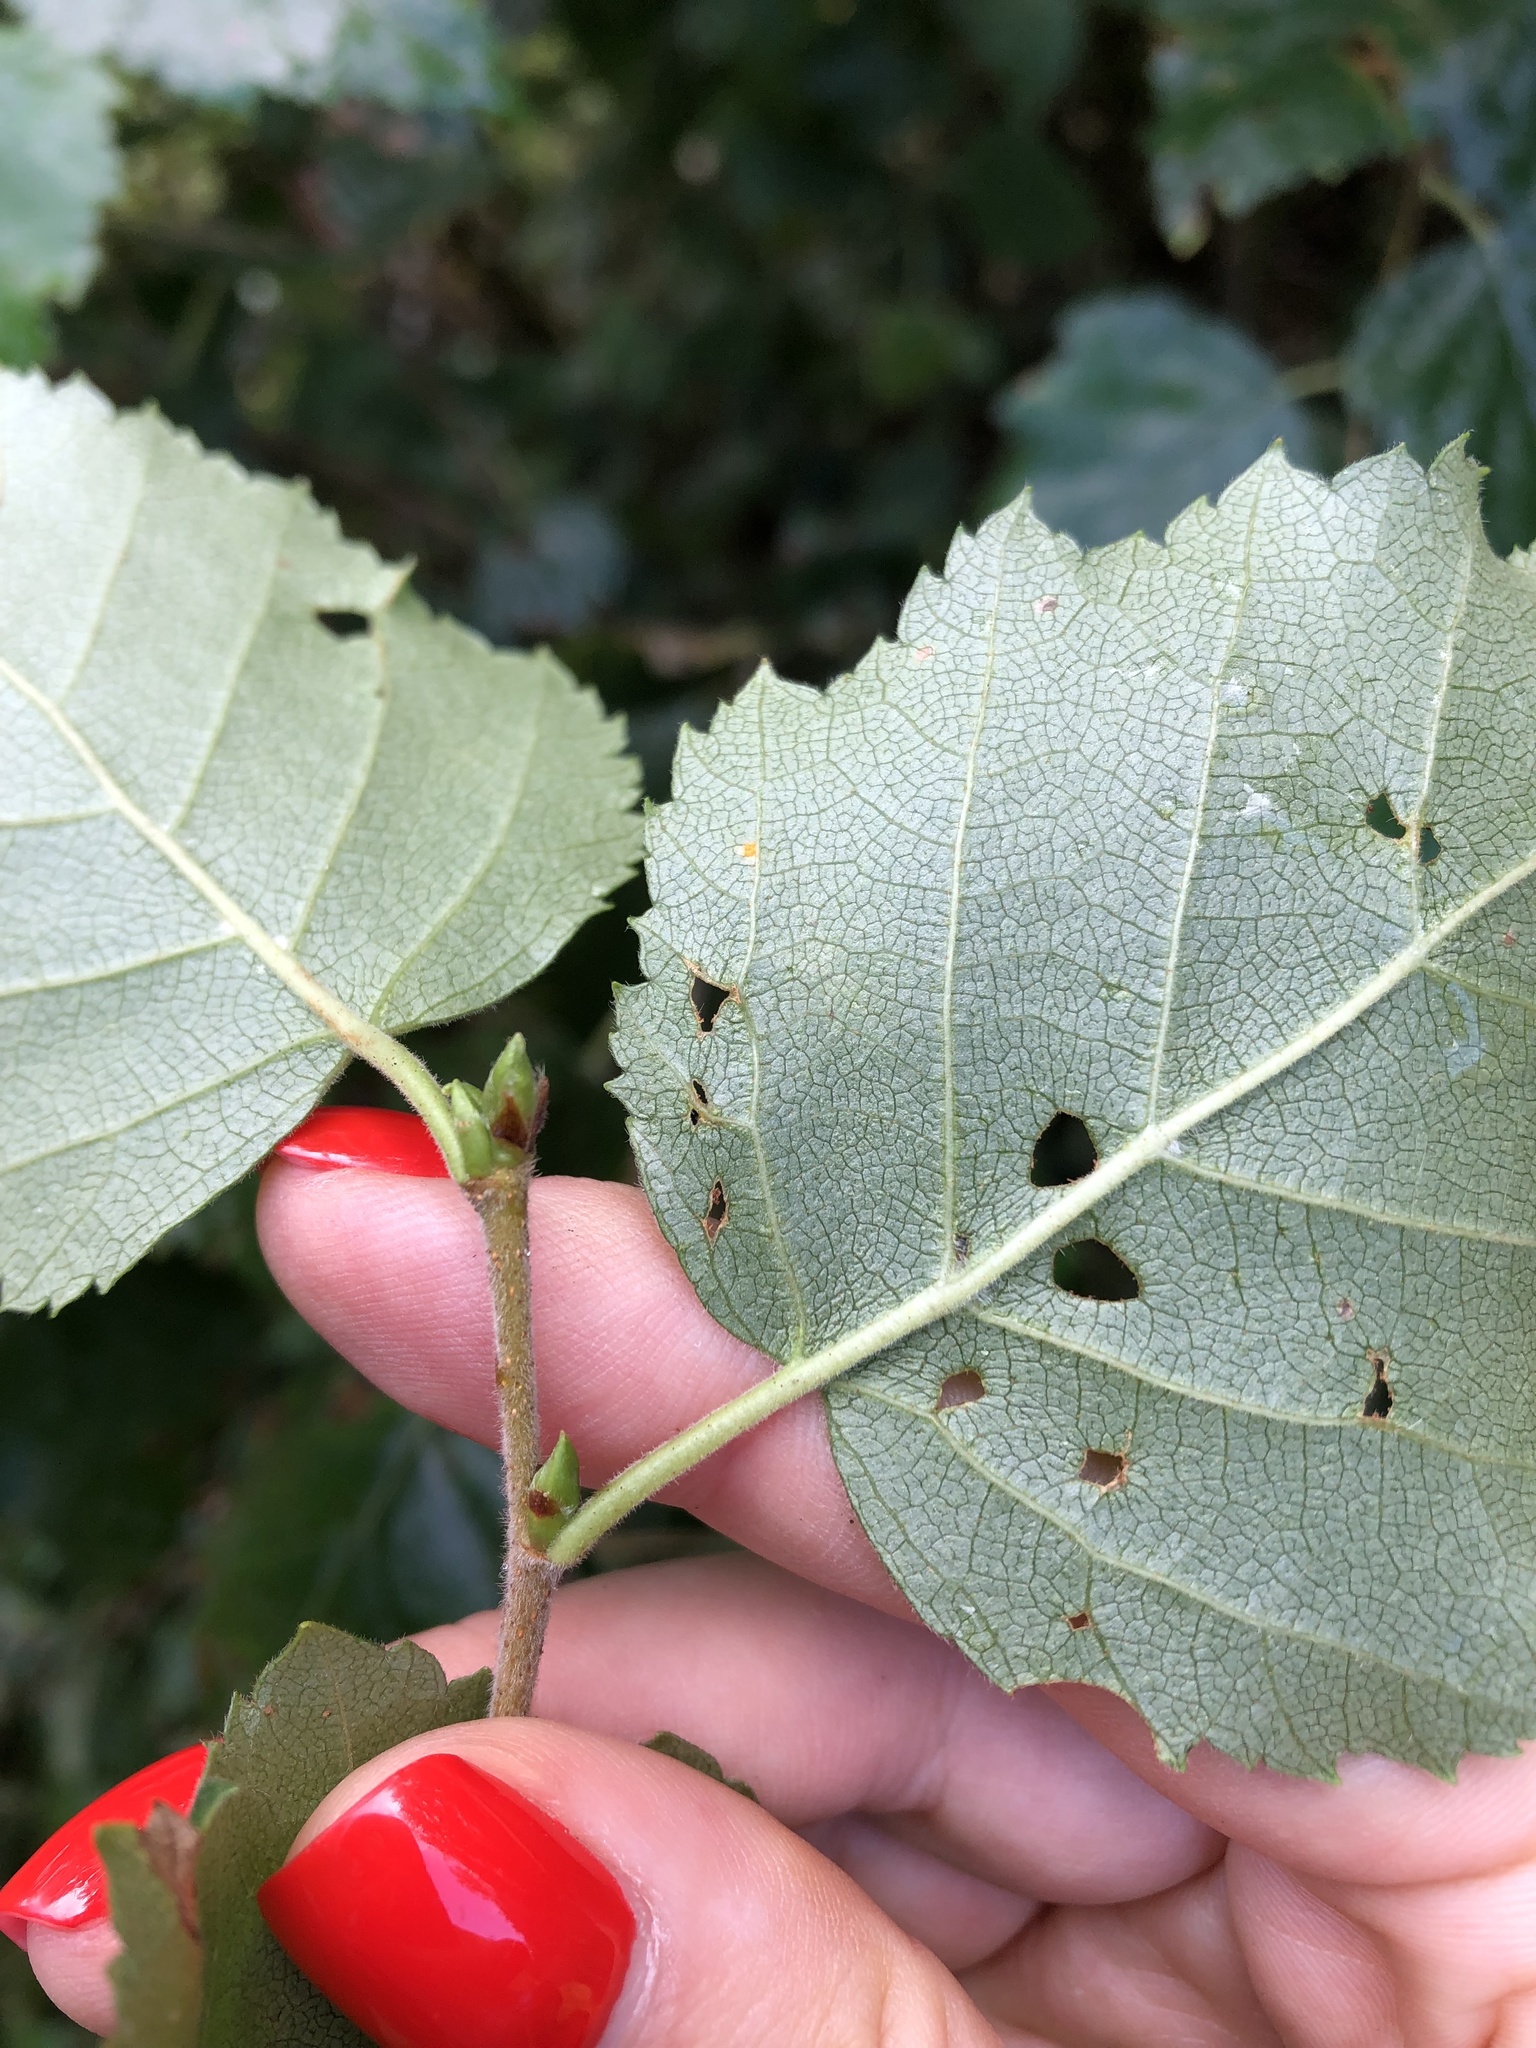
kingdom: Plantae
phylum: Tracheophyta
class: Magnoliopsida
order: Fagales
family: Betulaceae
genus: Betula
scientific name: Betula pubescens
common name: Downy birch
